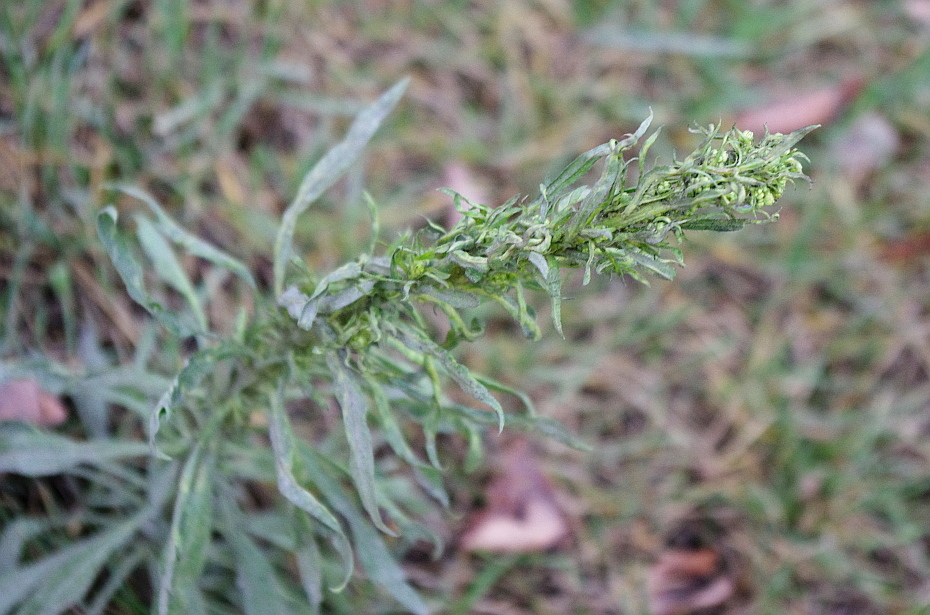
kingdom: Plantae
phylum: Tracheophyta
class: Magnoliopsida
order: Asterales
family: Asteraceae
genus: Erigeron
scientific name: Erigeron canadensis
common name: Canadian fleabane
